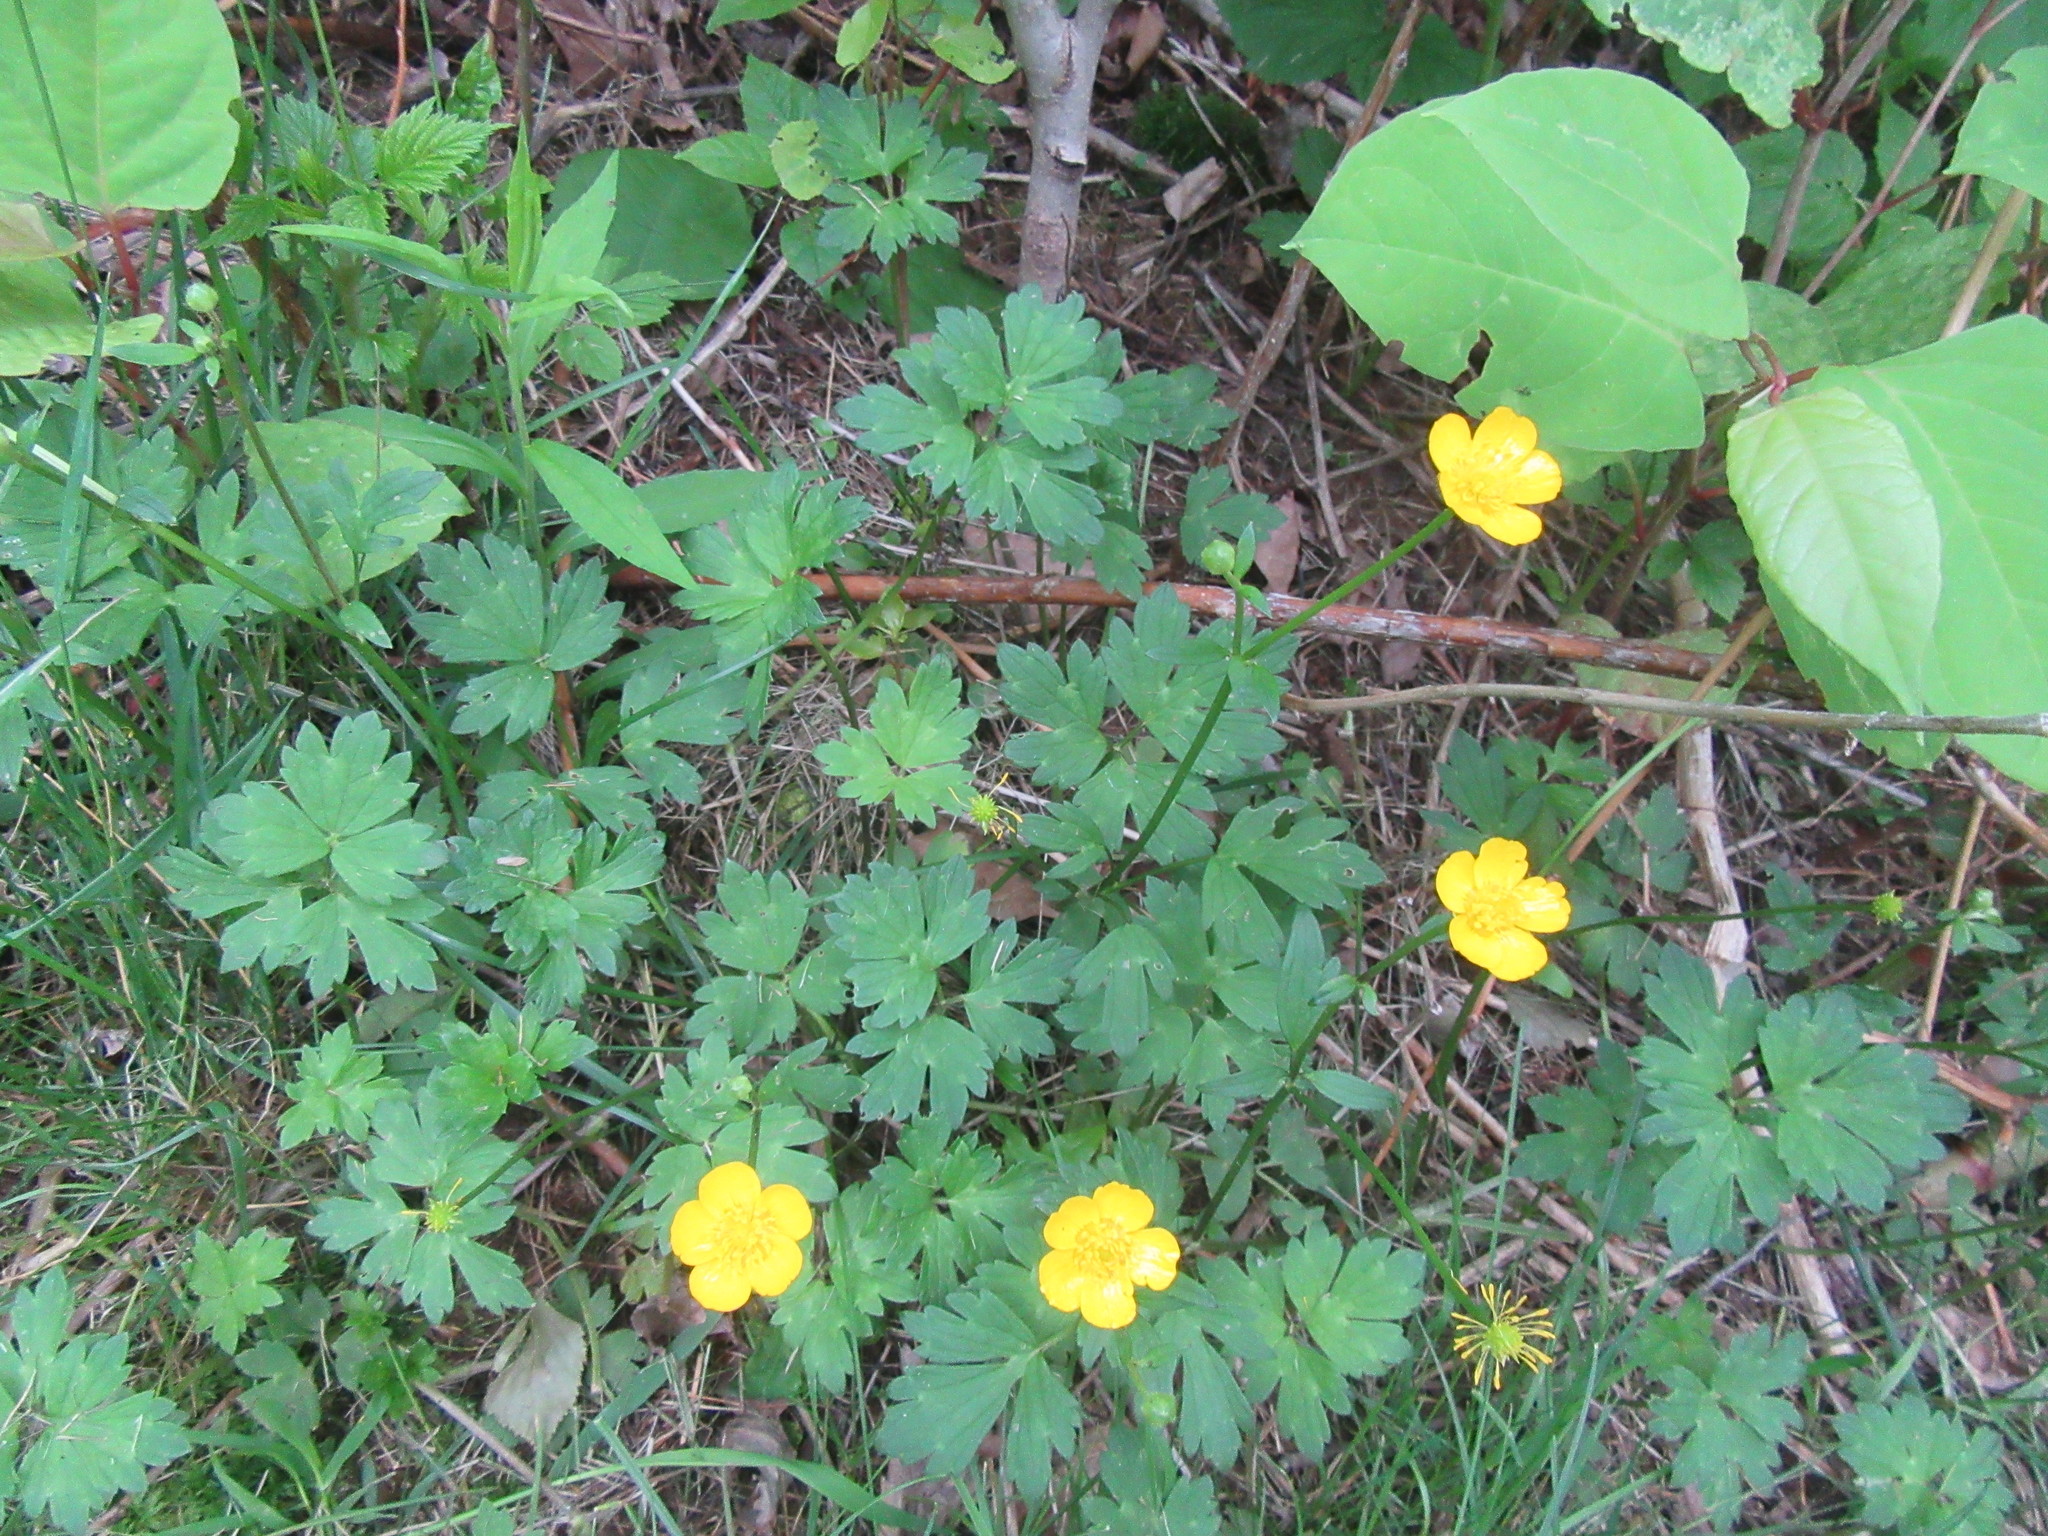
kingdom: Plantae
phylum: Tracheophyta
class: Magnoliopsida
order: Ranunculales
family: Ranunculaceae
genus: Ranunculus
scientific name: Ranunculus repens
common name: Creeping buttercup
